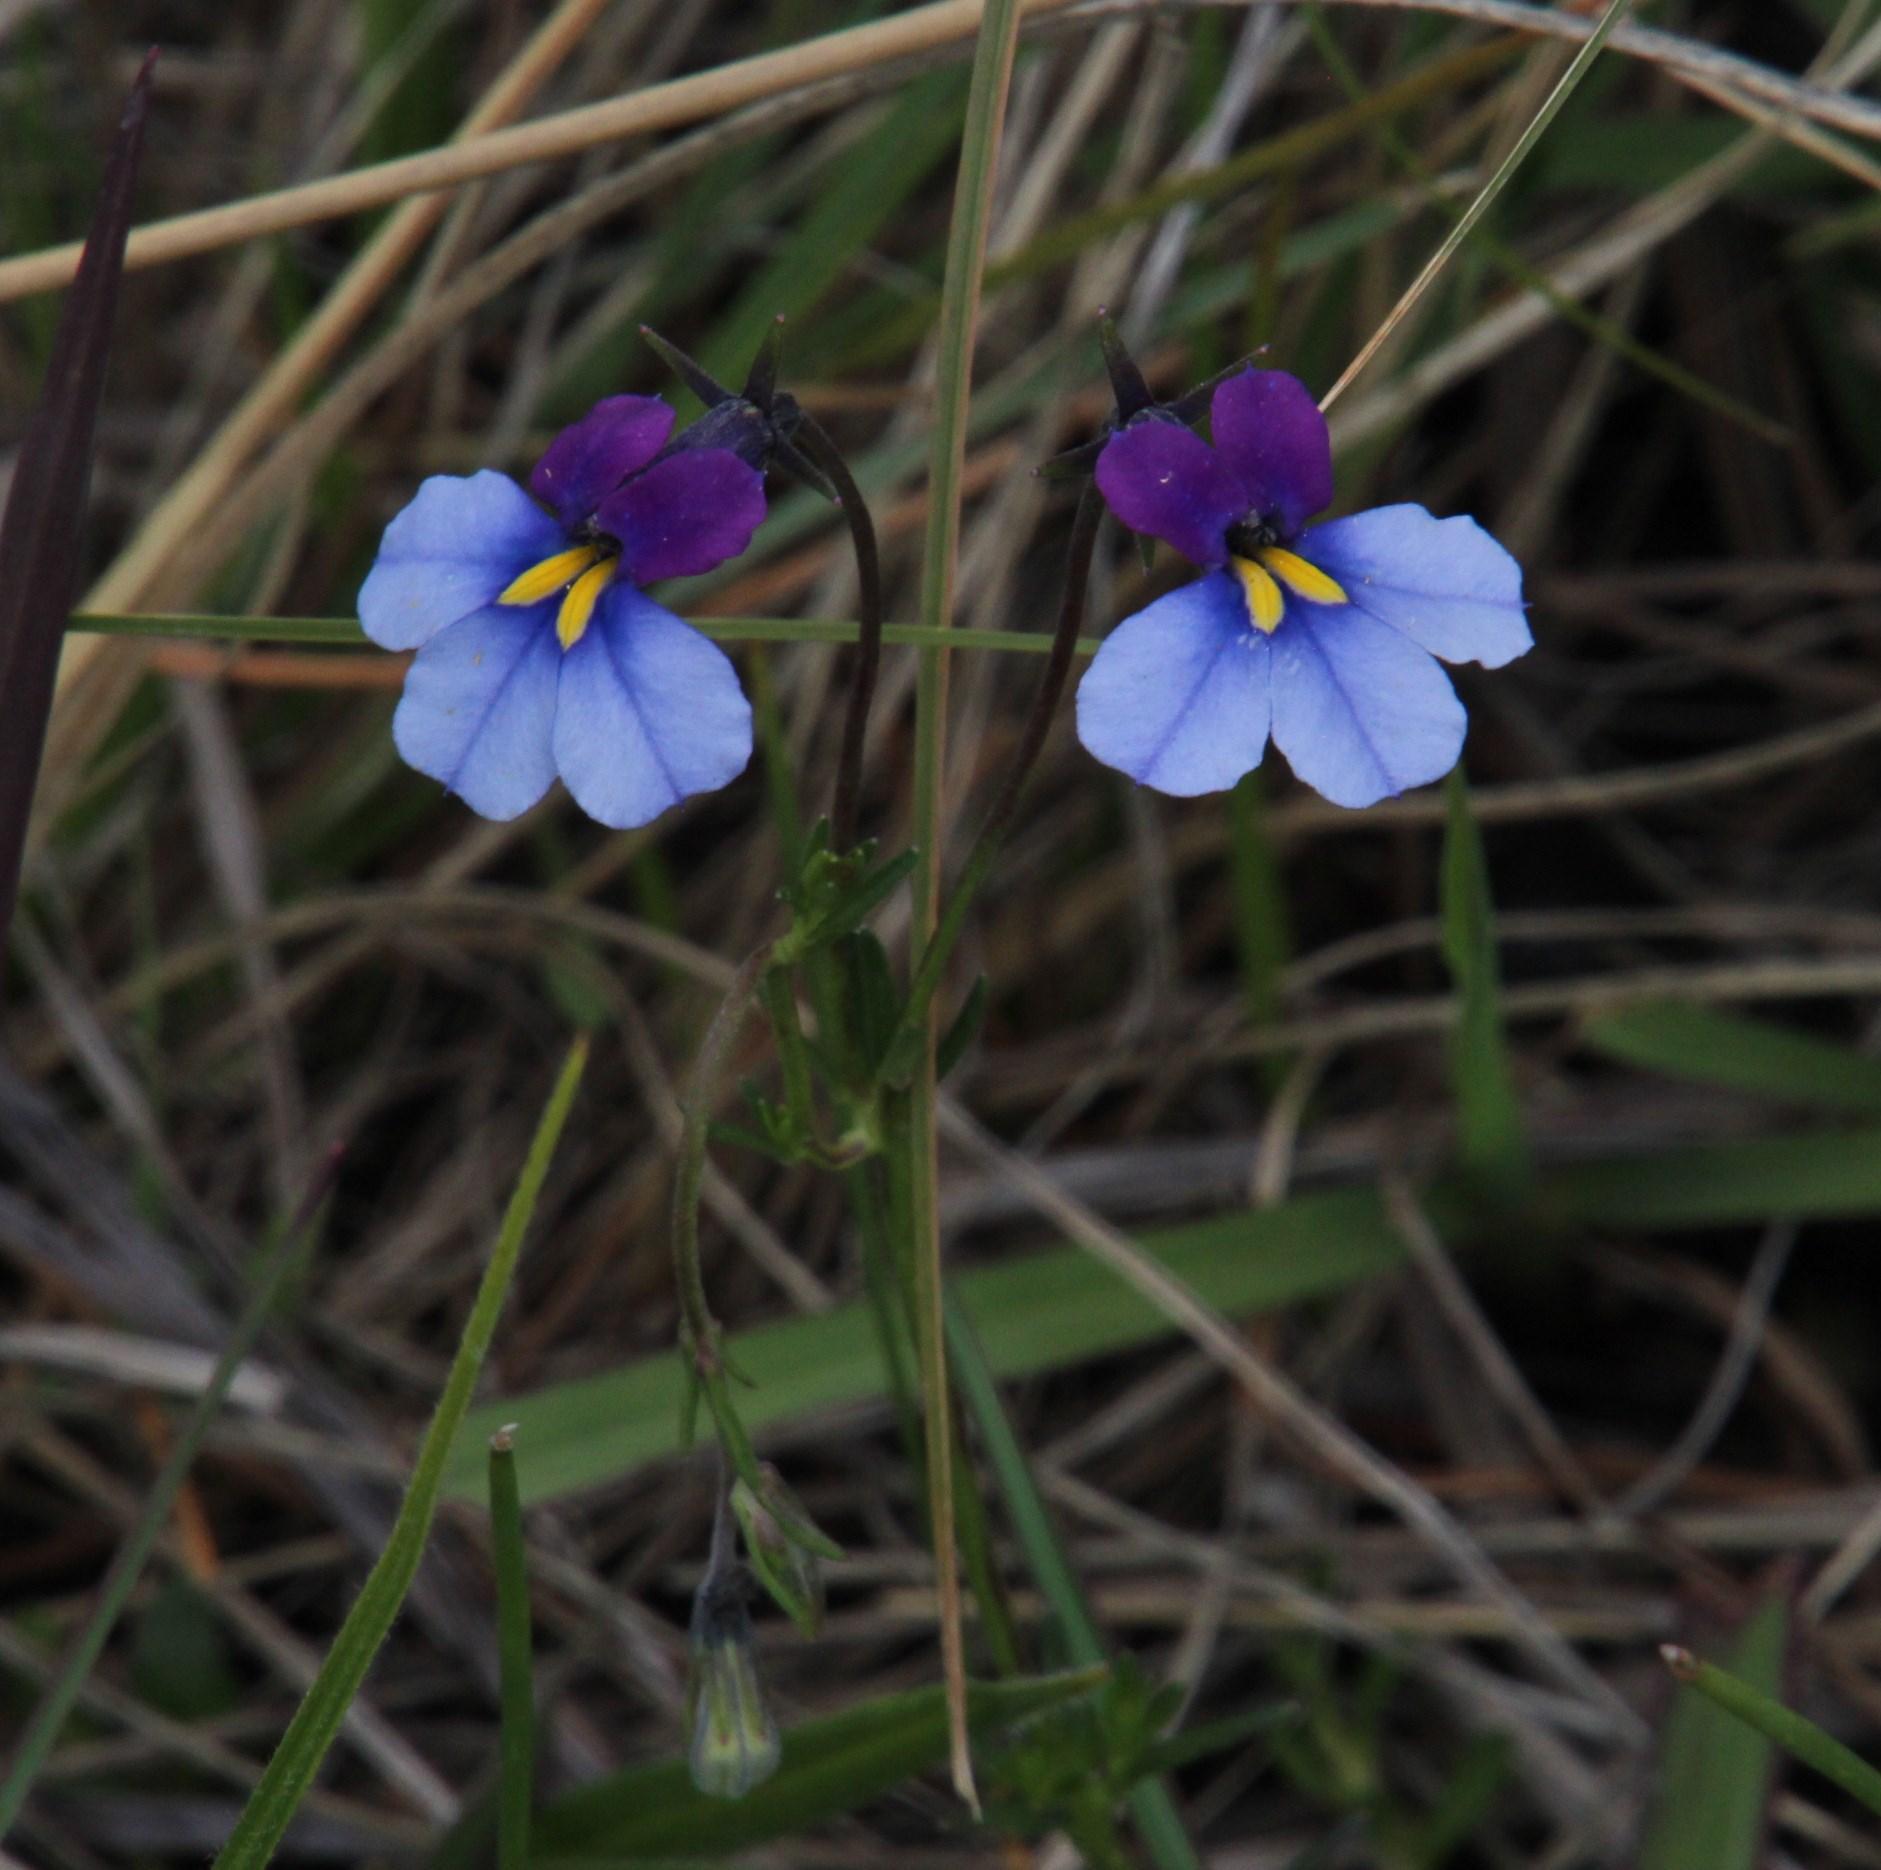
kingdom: Plantae
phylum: Tracheophyta
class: Magnoliopsida
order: Asterales
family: Campanulaceae
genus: Monopsis
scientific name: Monopsis decipiens
